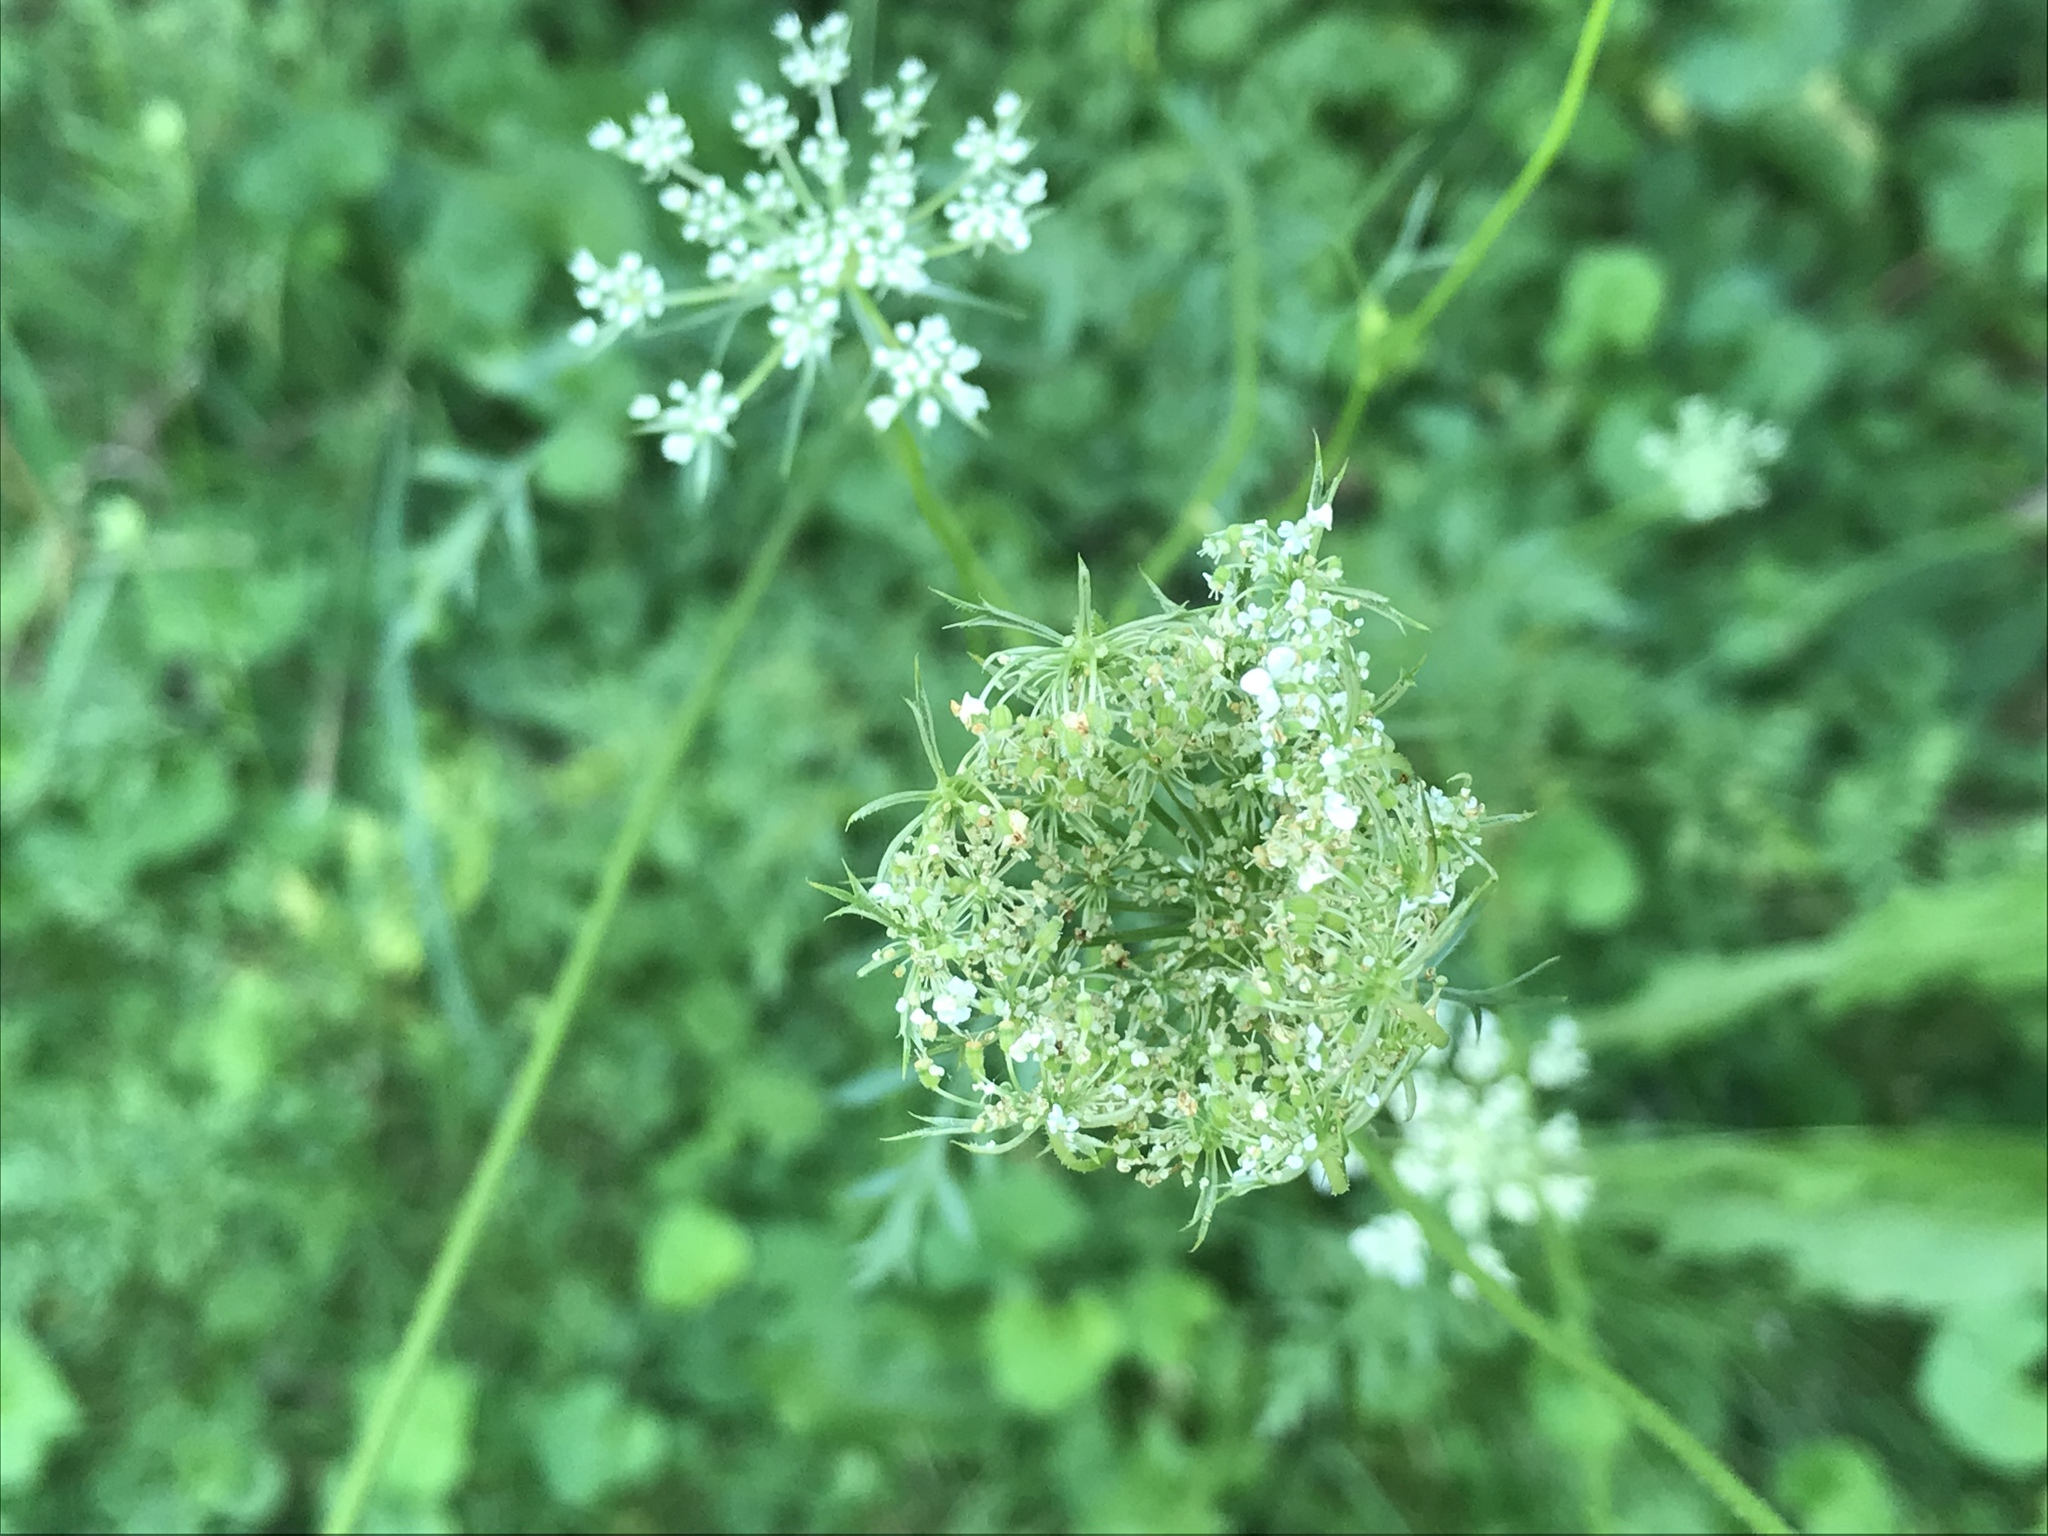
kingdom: Plantae
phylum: Tracheophyta
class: Magnoliopsida
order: Apiales
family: Apiaceae
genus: Daucus
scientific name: Daucus carota
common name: Wild carrot
